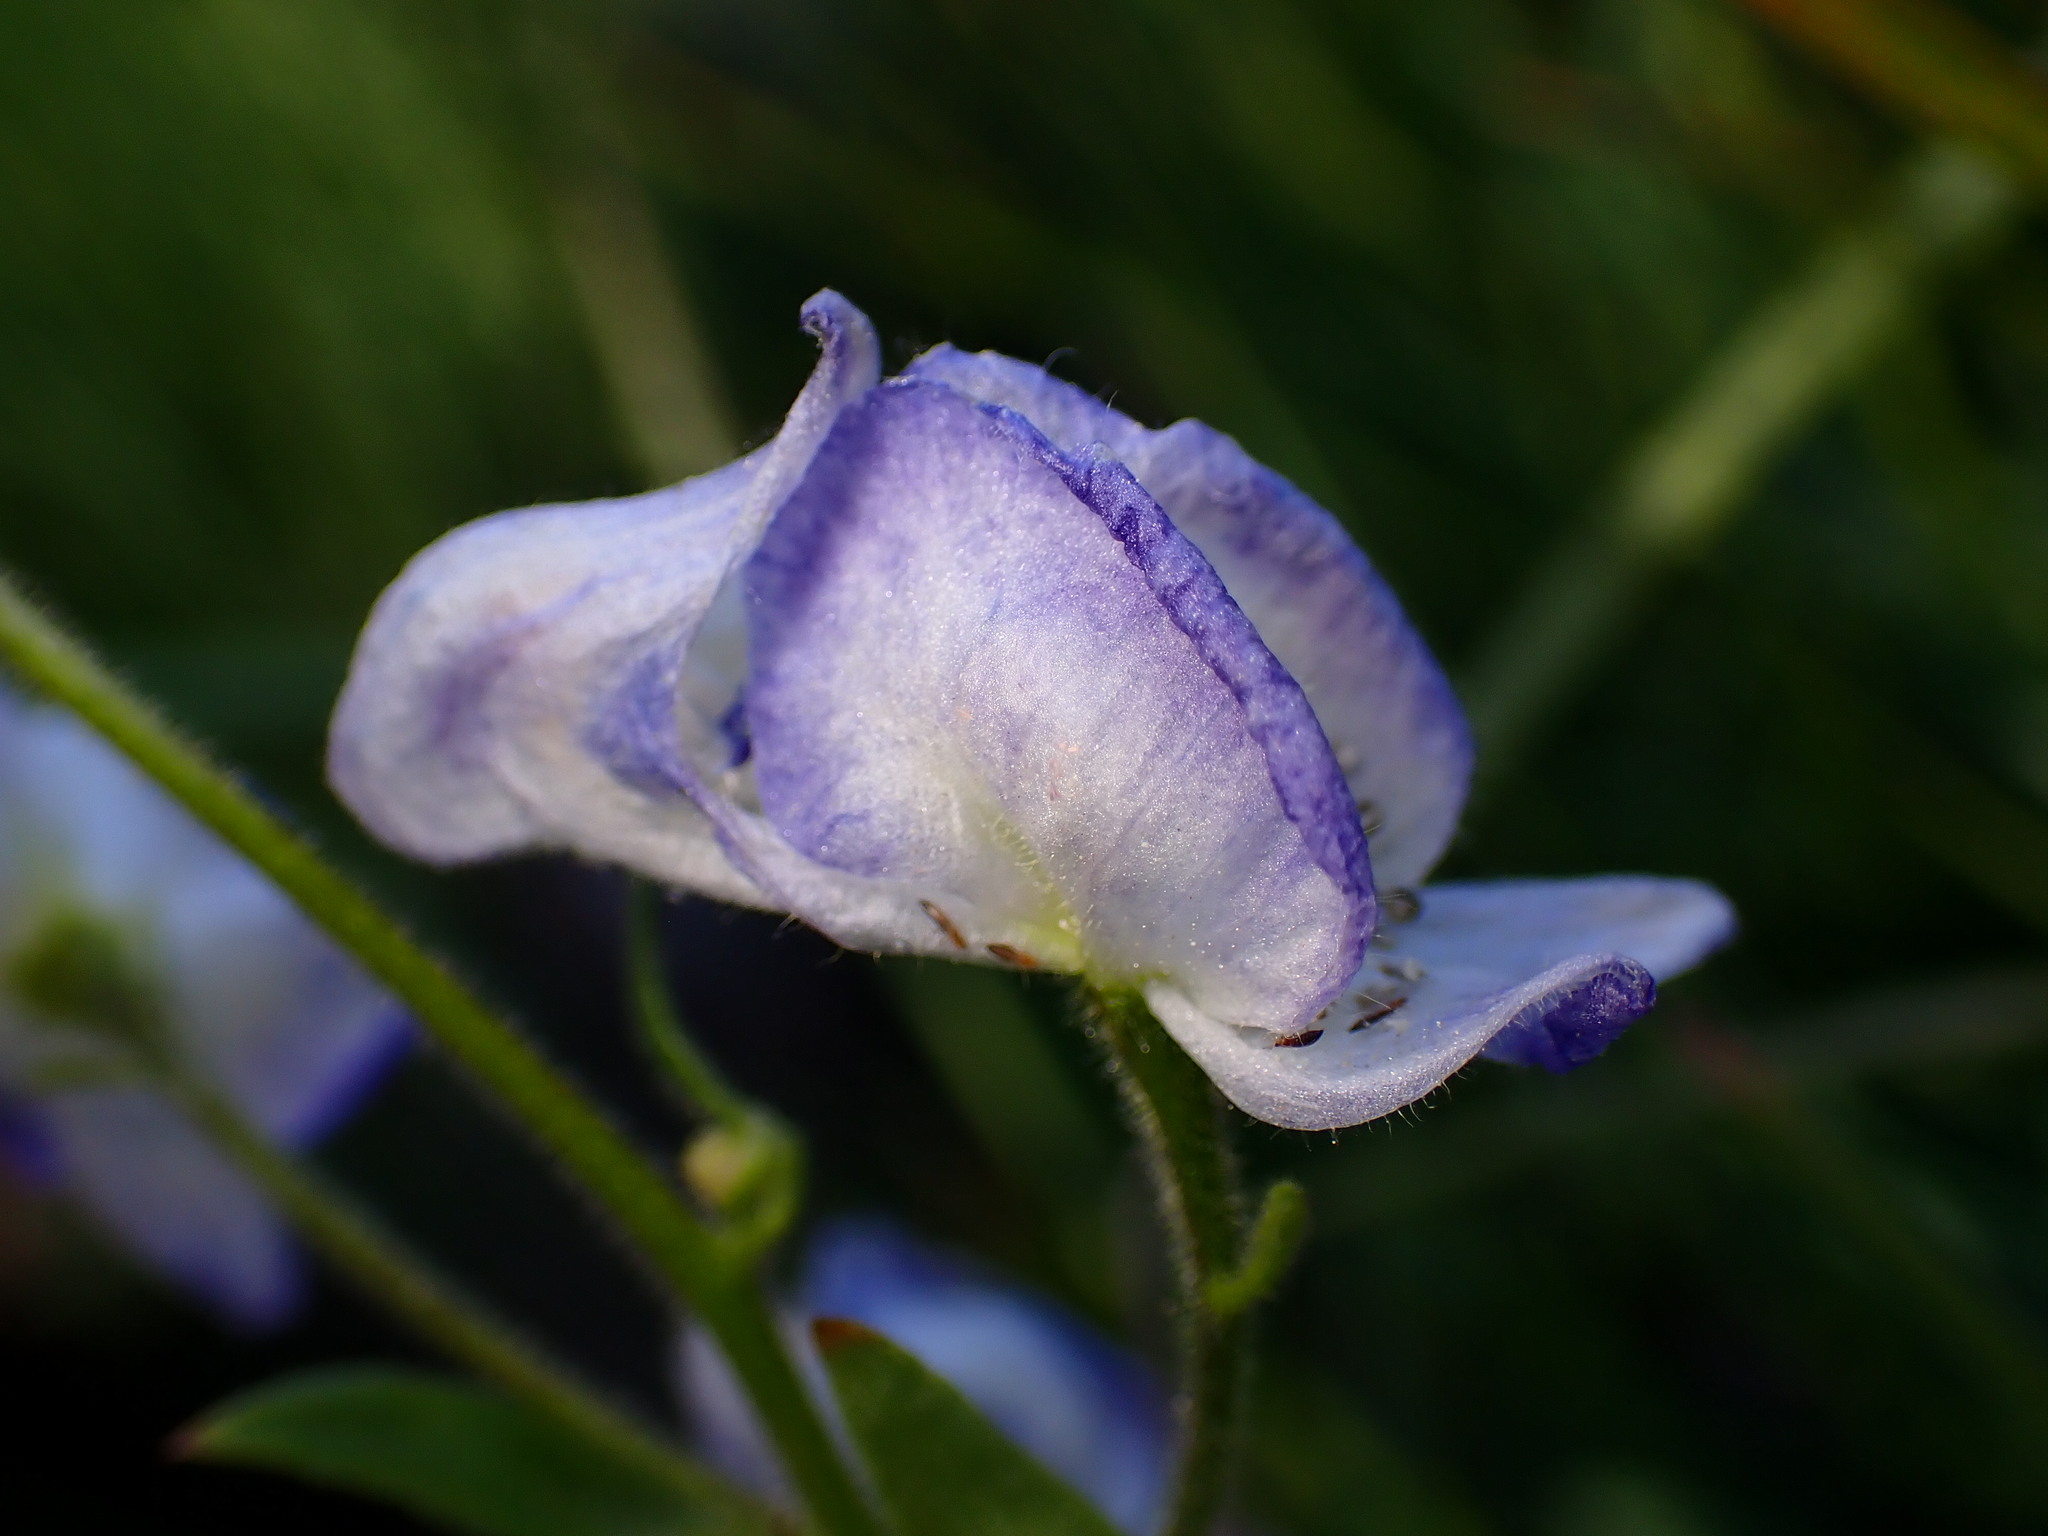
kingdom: Plantae
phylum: Tracheophyta
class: Magnoliopsida
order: Ranunculales
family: Ranunculaceae
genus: Aconitum
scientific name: Aconitum columbianum
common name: Columbia aconite
